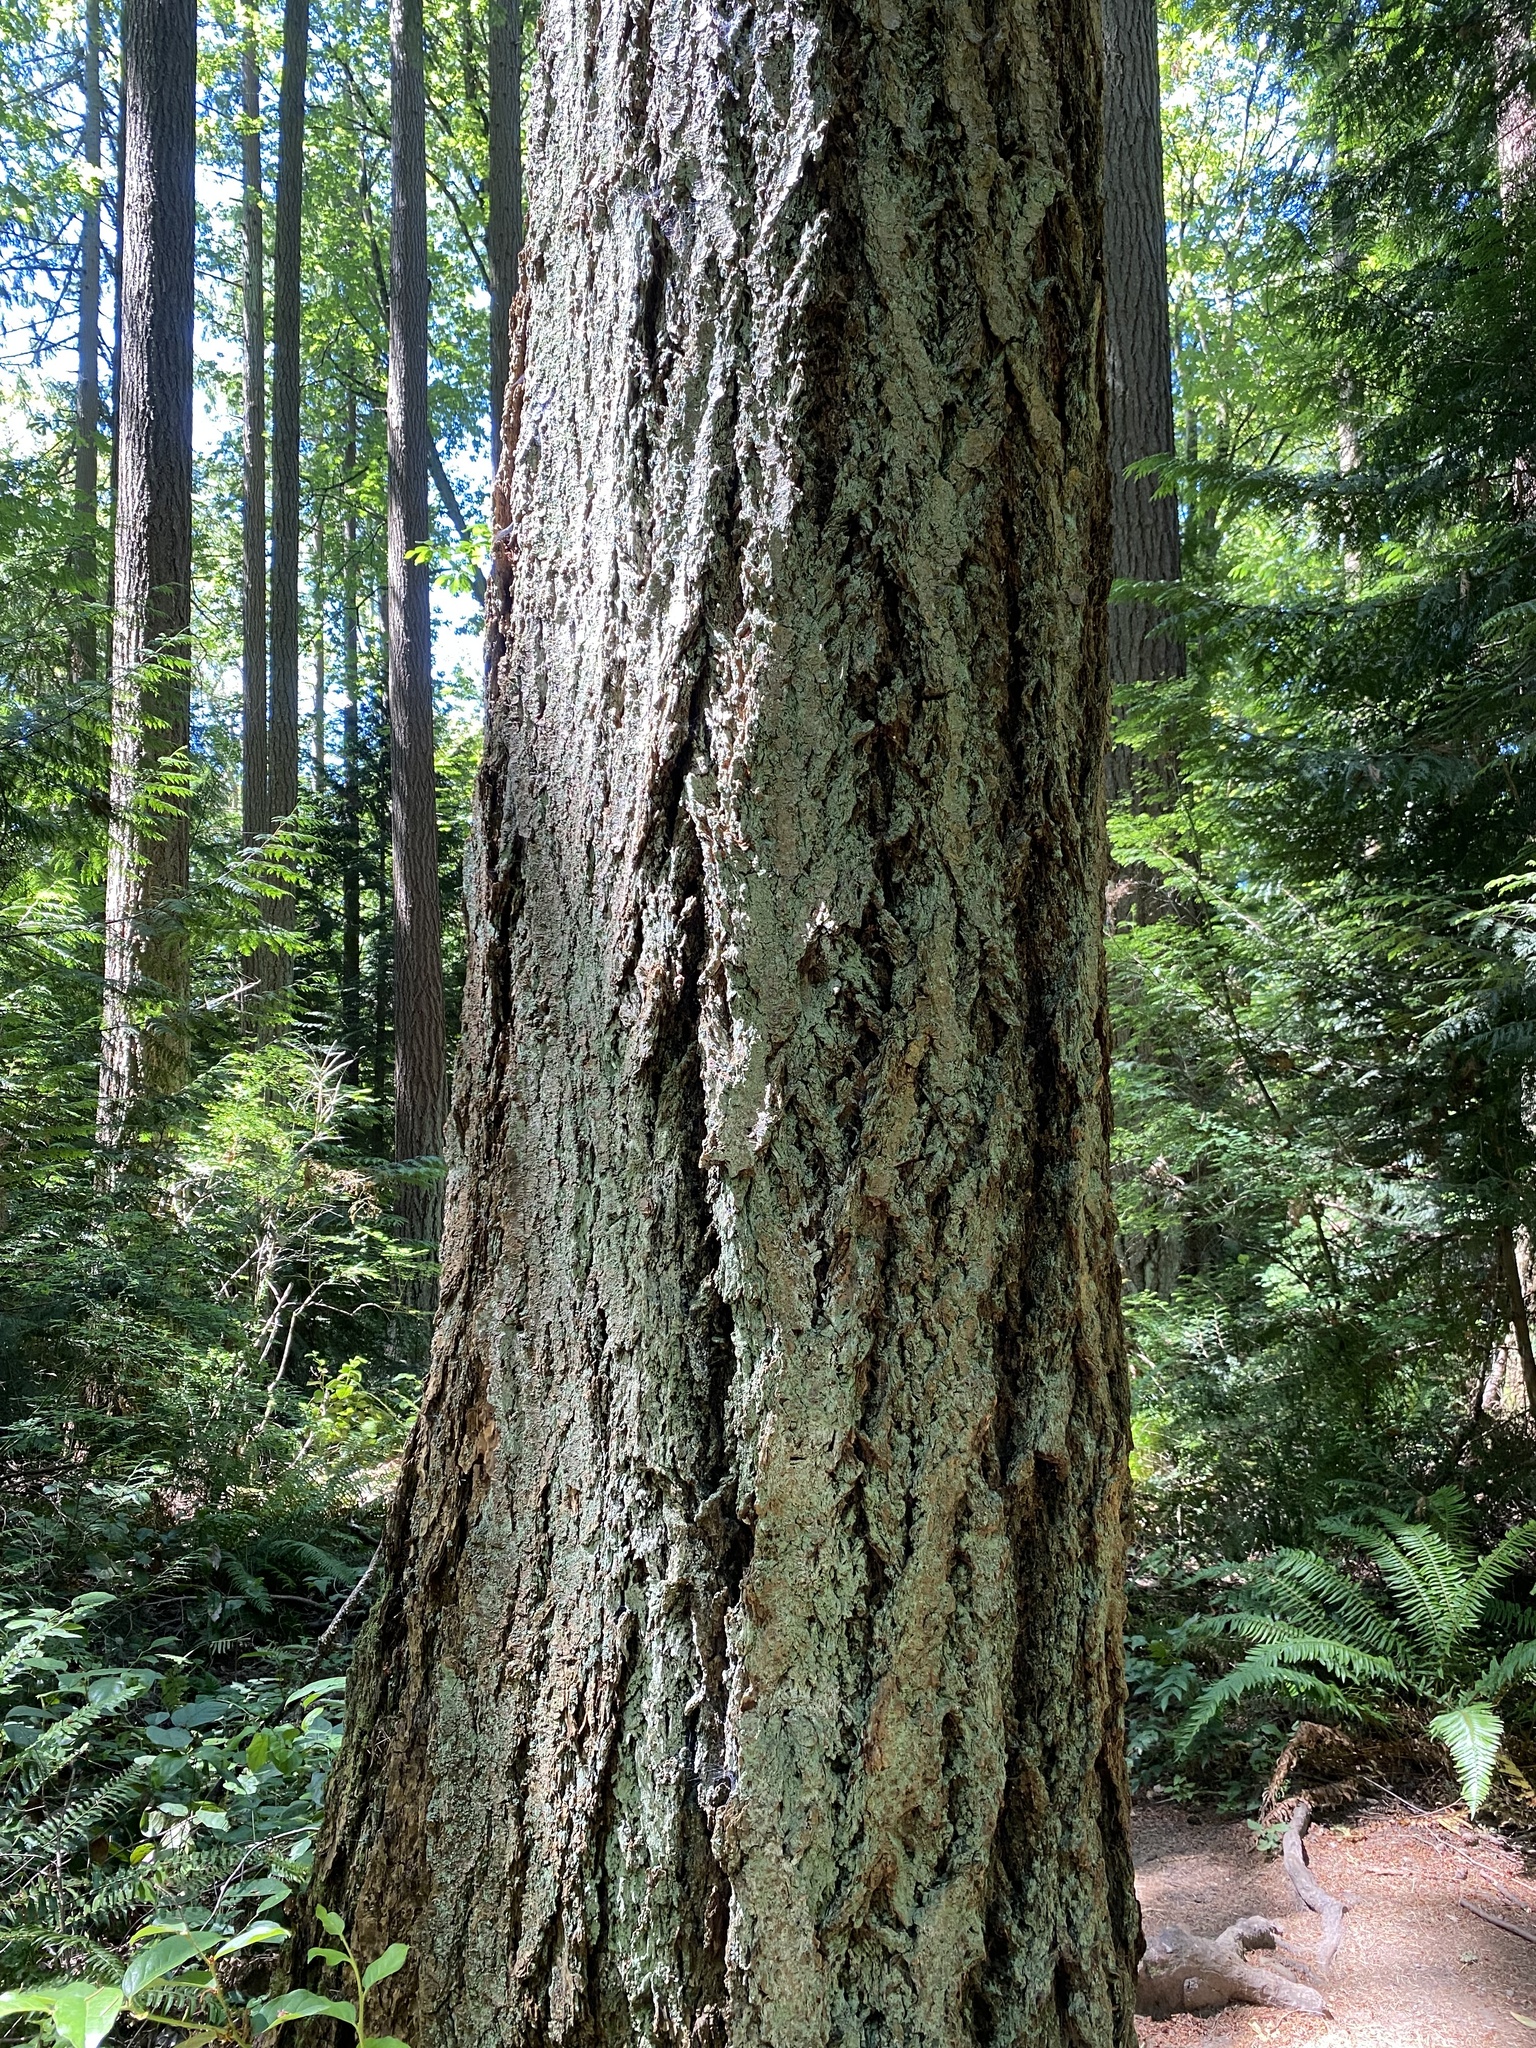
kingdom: Plantae
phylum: Tracheophyta
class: Pinopsida
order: Pinales
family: Pinaceae
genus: Pseudotsuga
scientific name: Pseudotsuga menziesii
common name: Douglas fir
